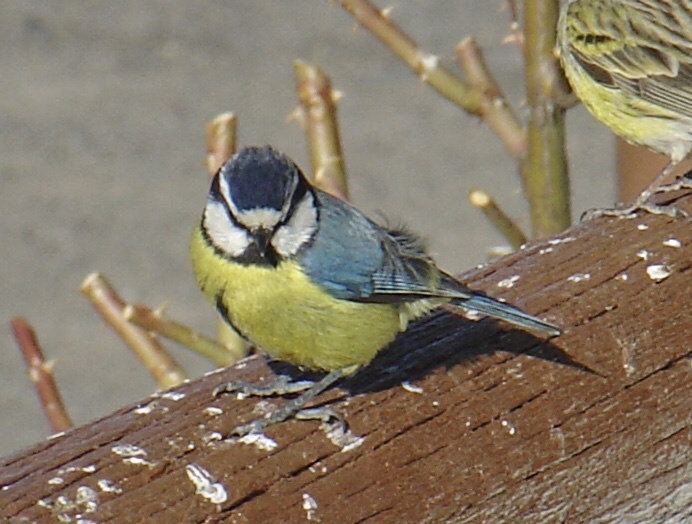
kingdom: Animalia
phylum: Chordata
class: Aves
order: Passeriformes
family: Paridae
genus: Cyanistes
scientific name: Cyanistes teneriffae
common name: African blue tit
